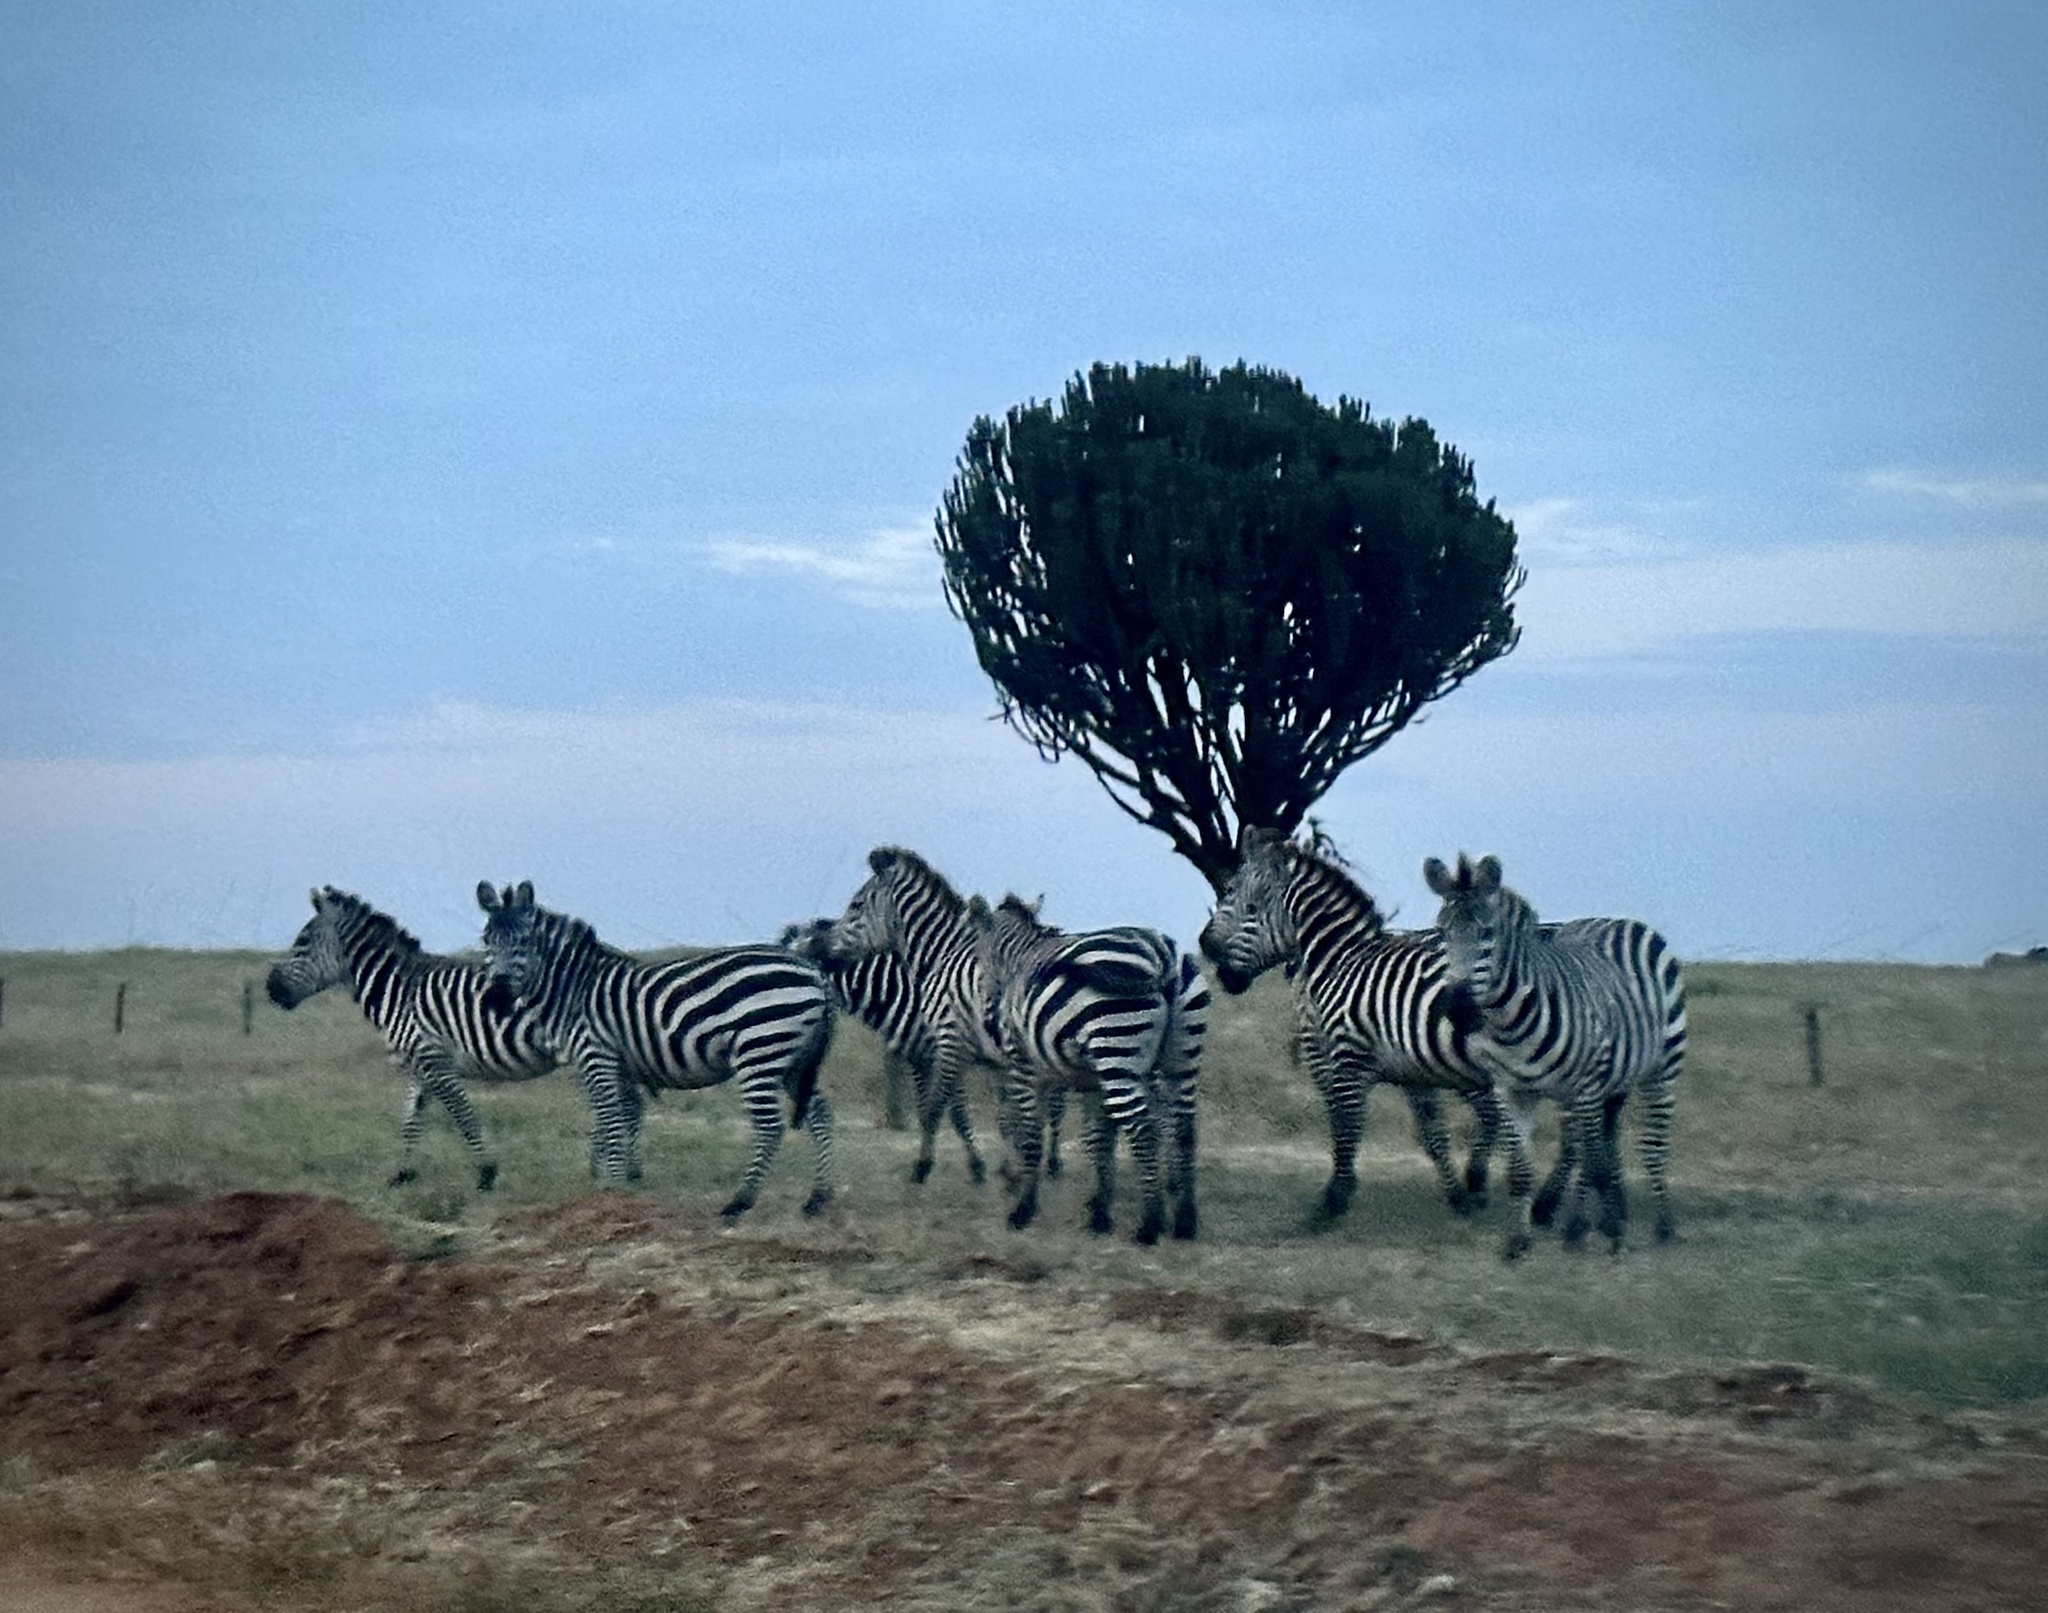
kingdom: Animalia
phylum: Chordata
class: Mammalia
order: Perissodactyla
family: Equidae
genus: Equus
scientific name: Equus quagga
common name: Plains zebra
